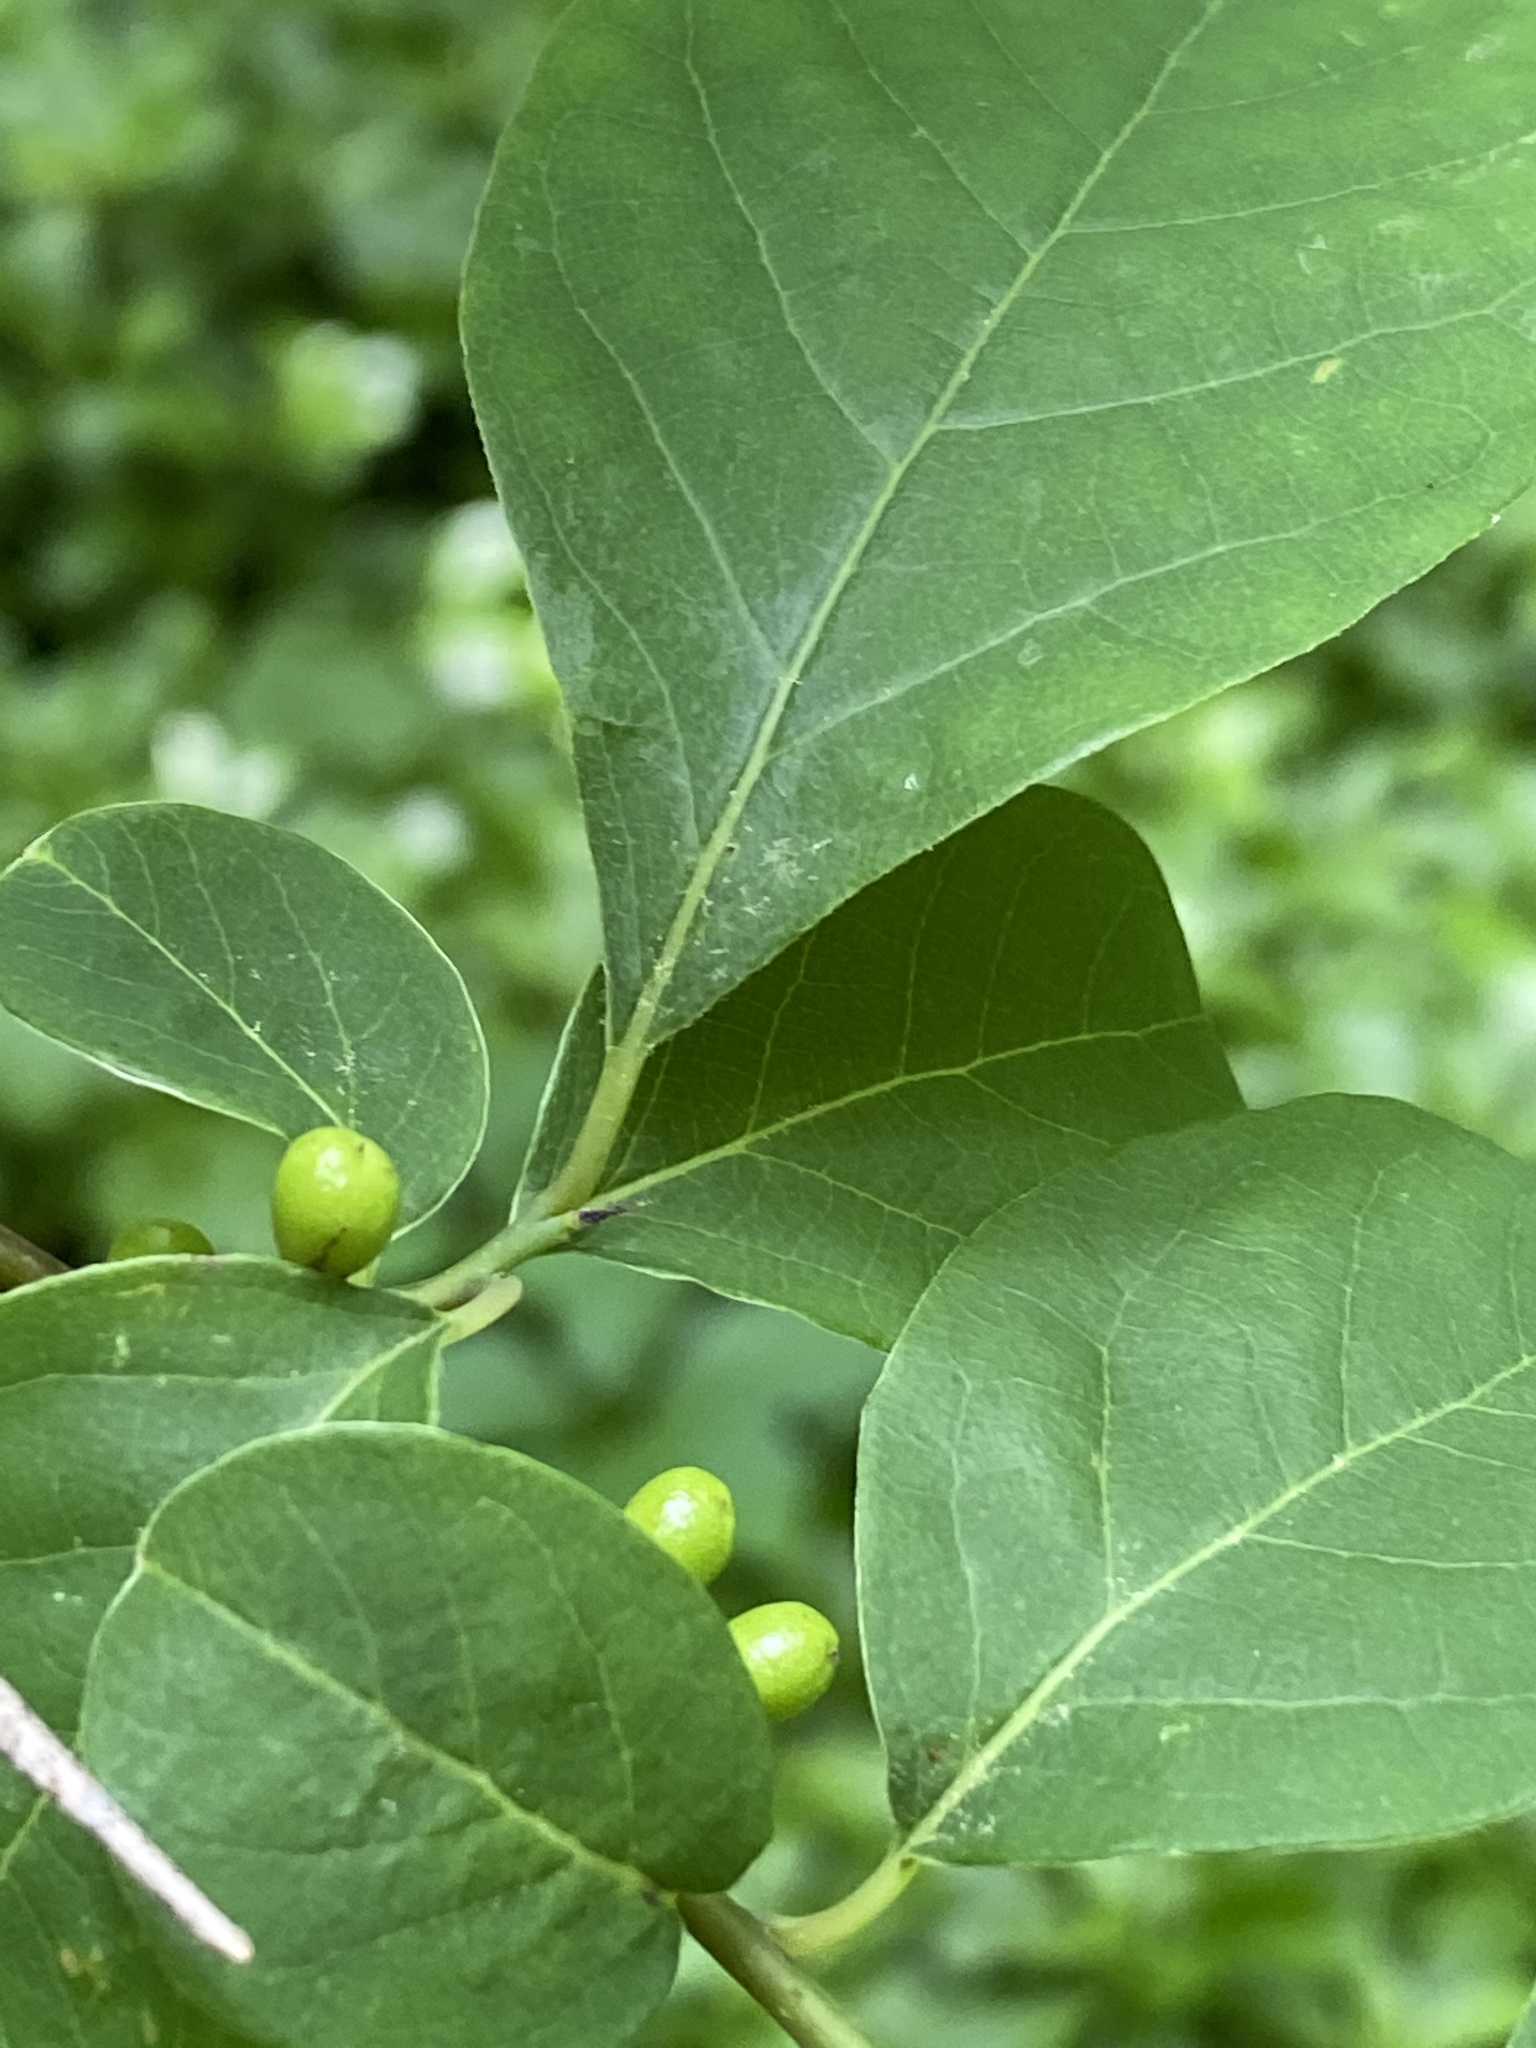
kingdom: Plantae
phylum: Tracheophyta
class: Magnoliopsida
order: Laurales
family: Lauraceae
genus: Lindera
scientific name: Lindera benzoin
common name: Spicebush
